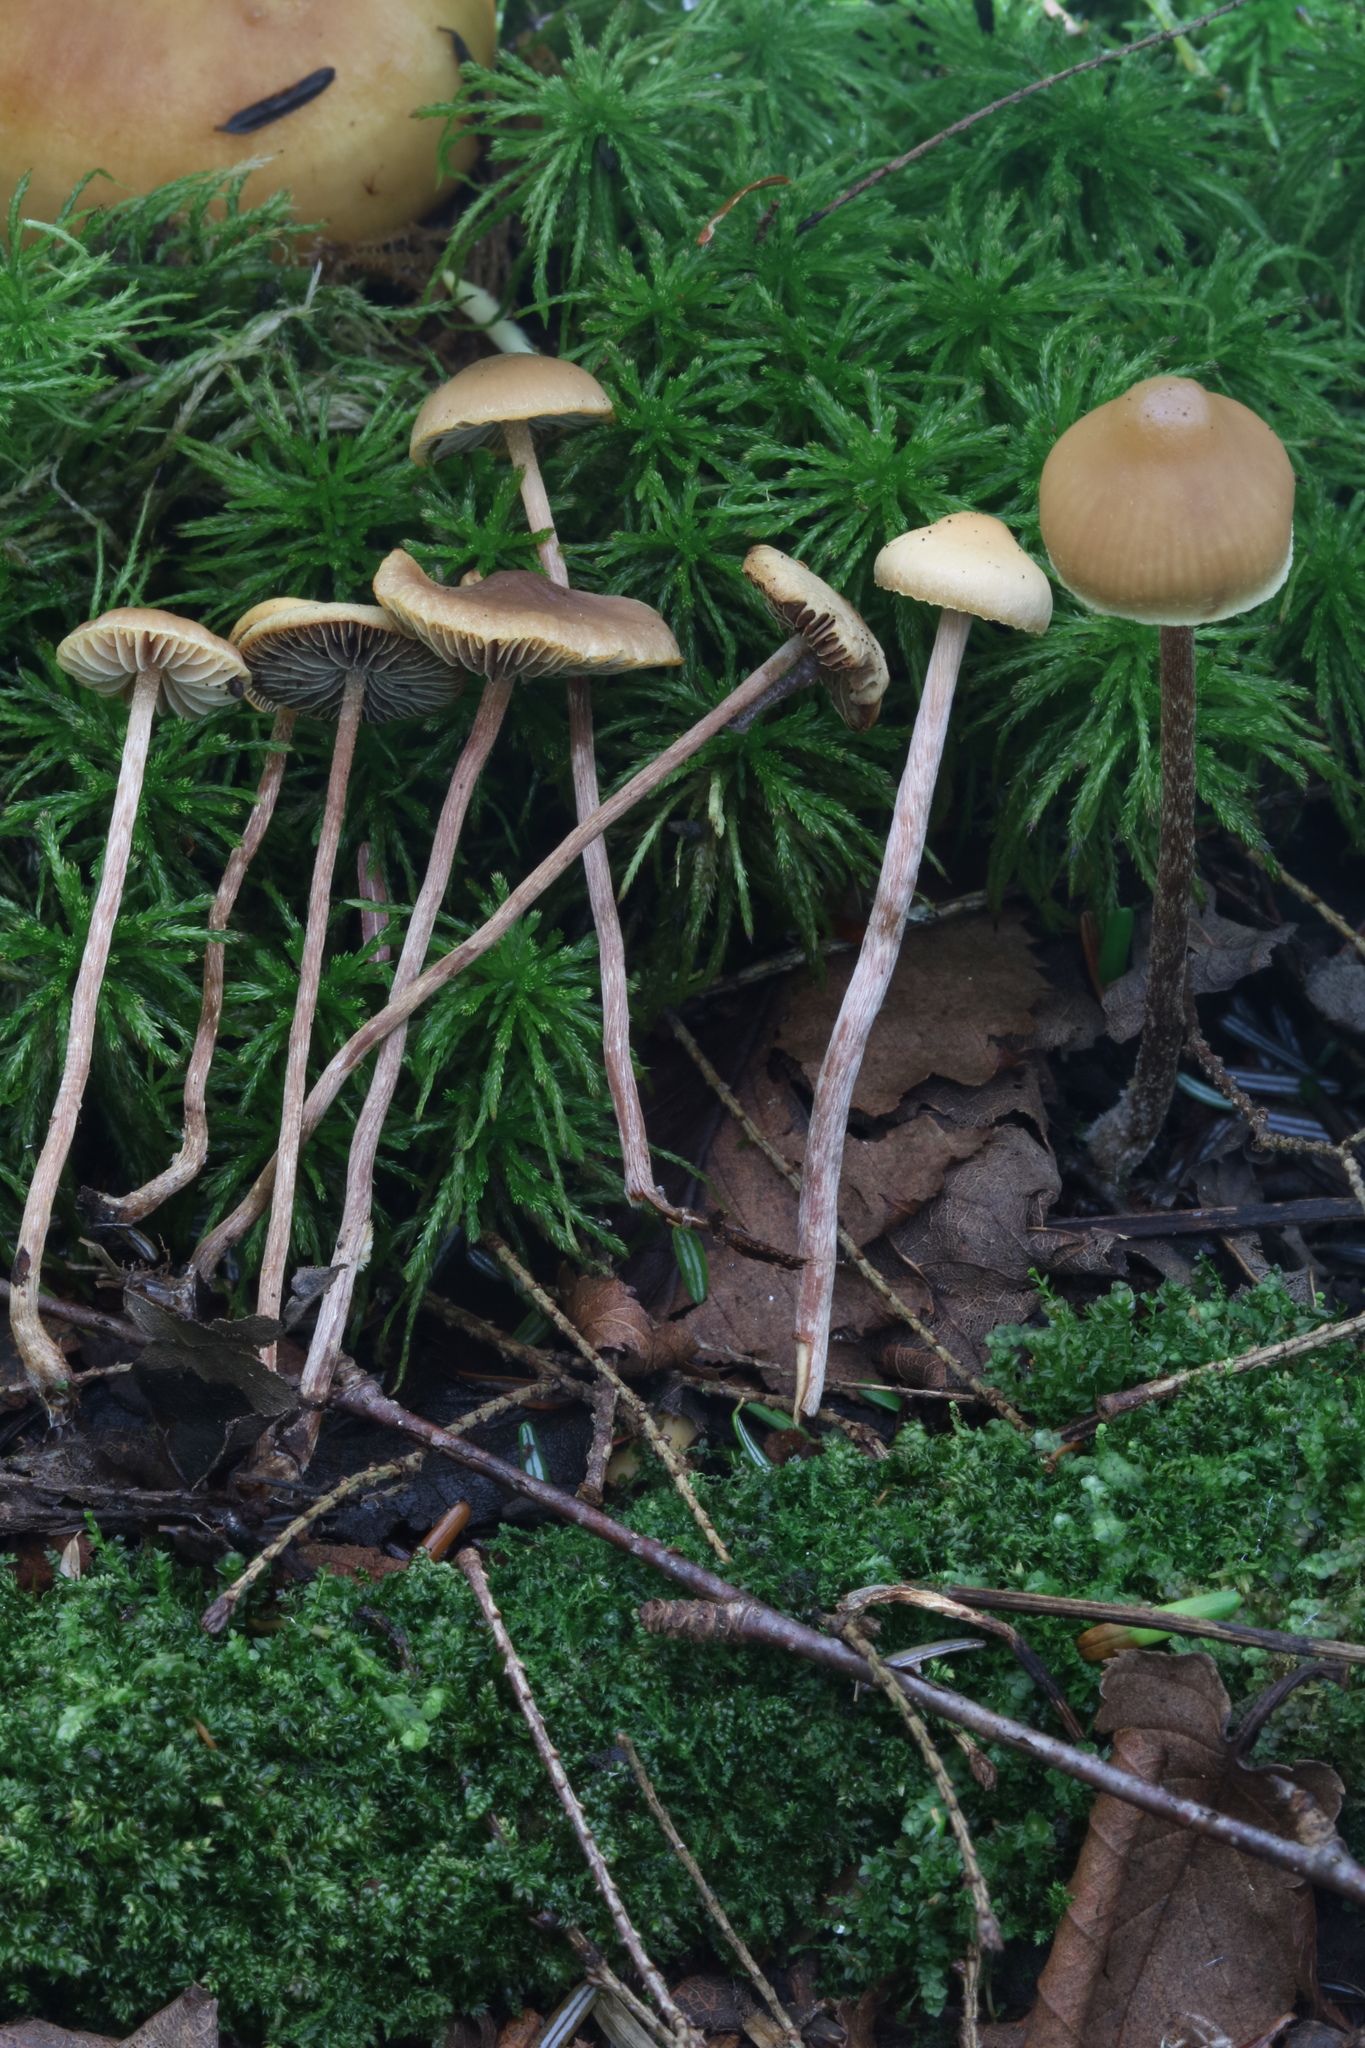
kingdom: Fungi
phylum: Basidiomycota
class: Agaricomycetes
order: Agaricales
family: Strophariaceae
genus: Bogbodia
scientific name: Bogbodia uda
